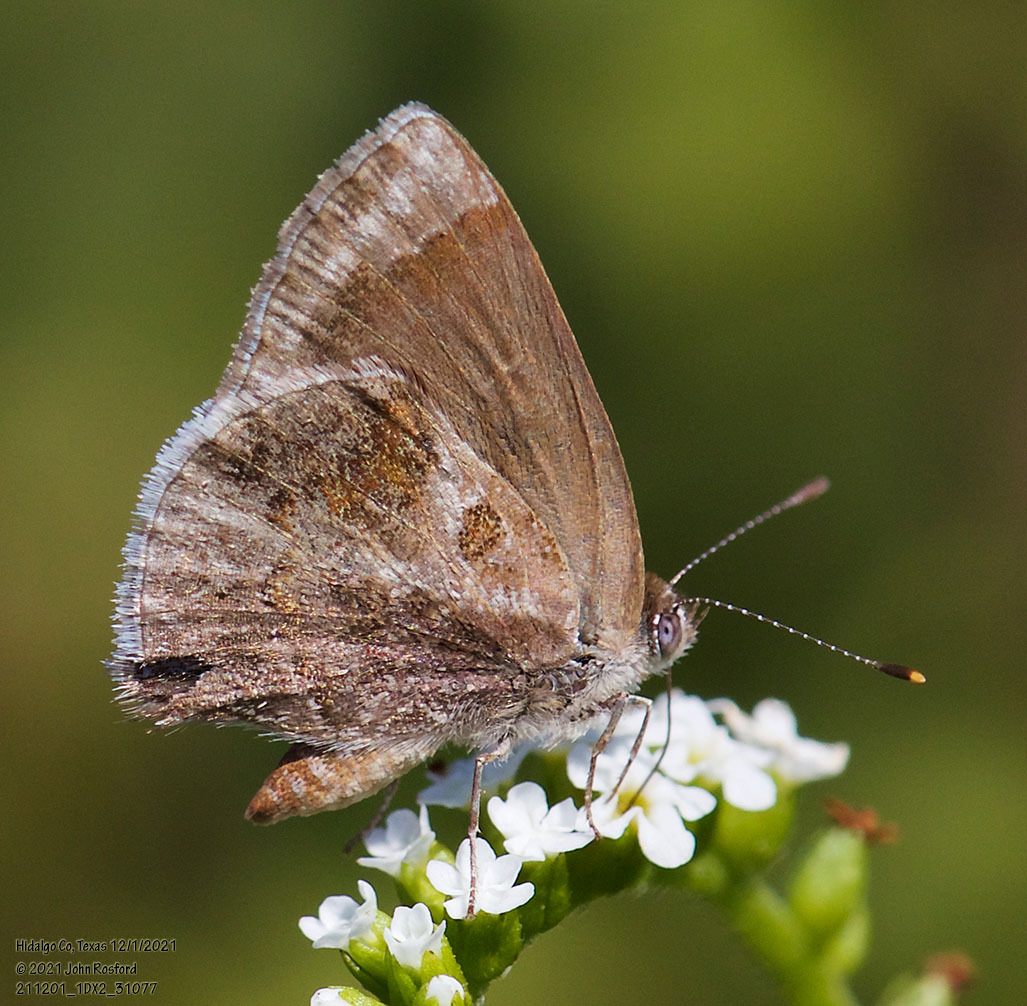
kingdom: Animalia
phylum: Arthropoda
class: Insecta
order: Lepidoptera
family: Lycaenidae
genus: Strymon
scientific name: Strymon bazochii
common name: Lantana scrub-hairstreak
